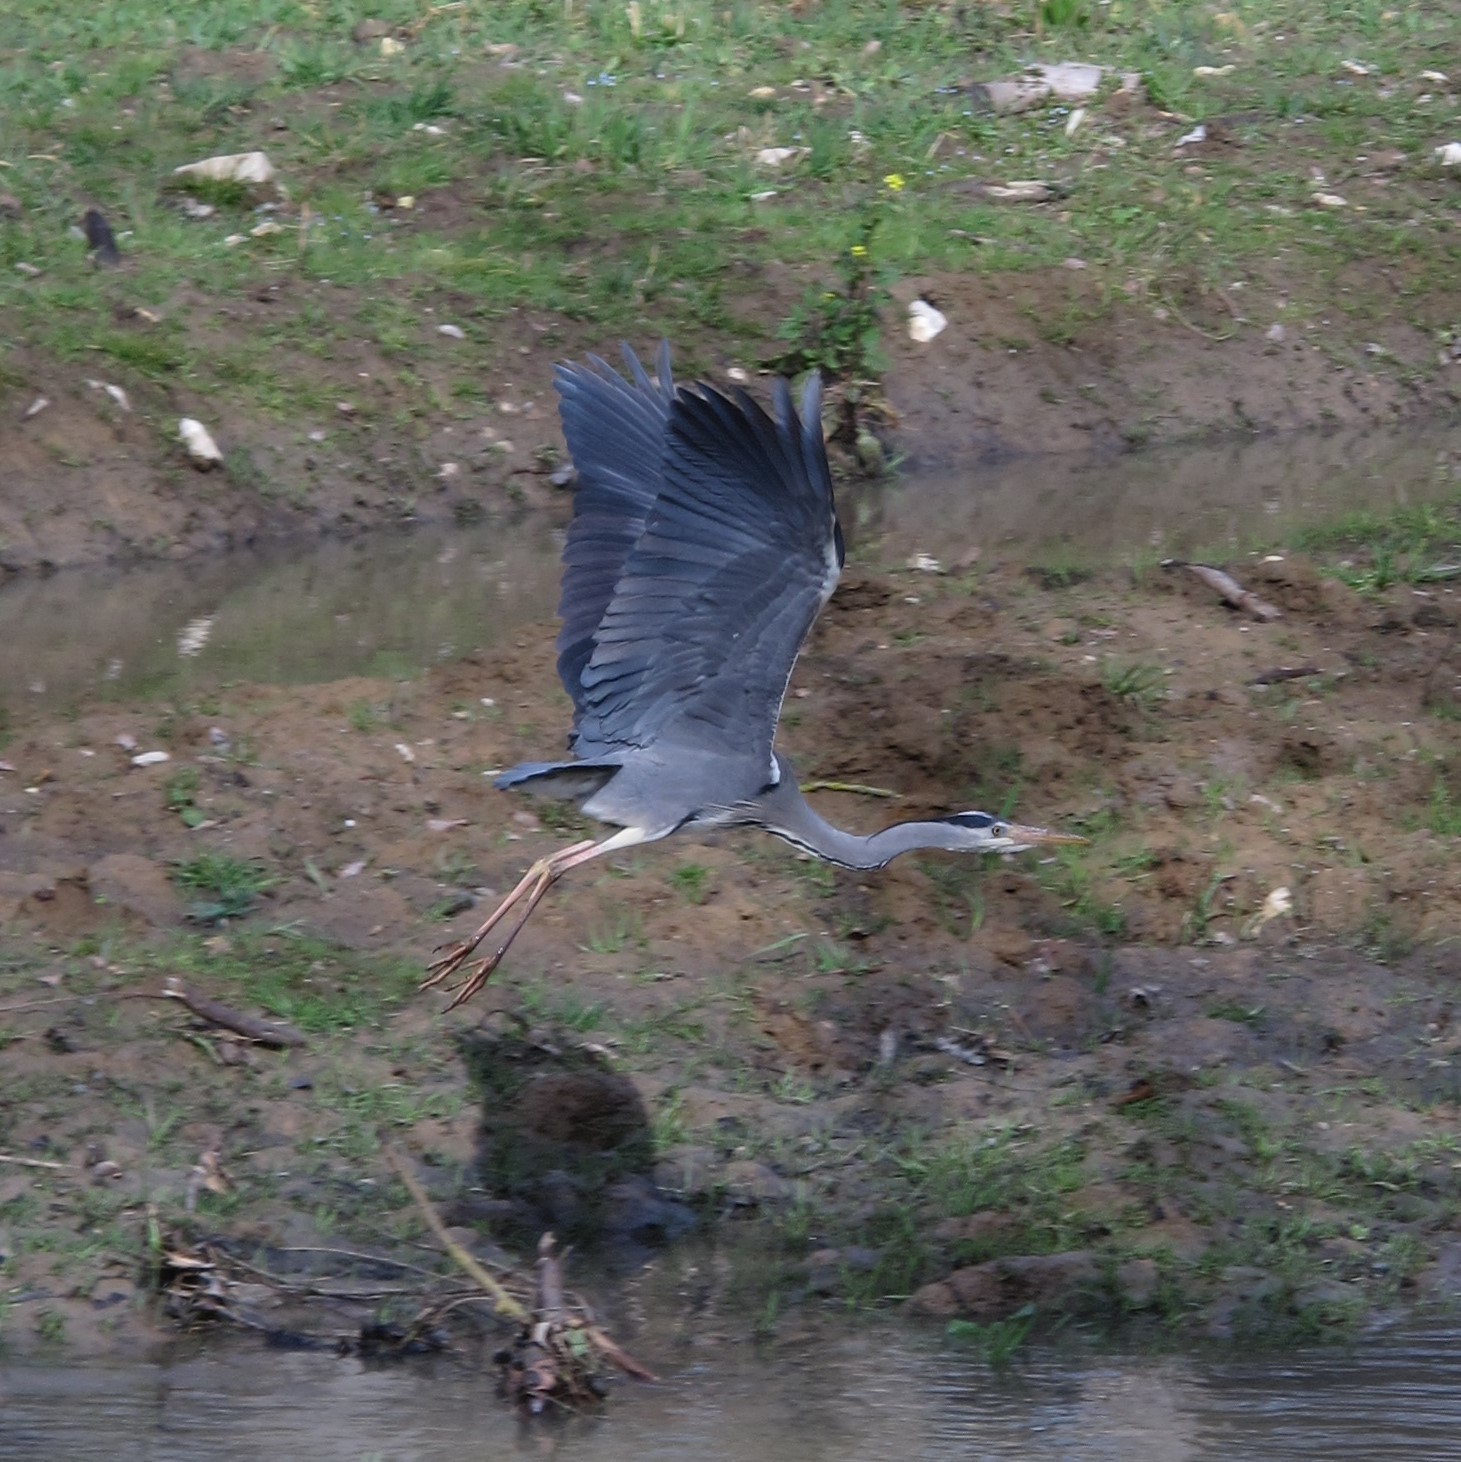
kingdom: Animalia
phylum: Chordata
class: Aves
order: Pelecaniformes
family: Ardeidae
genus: Ardea
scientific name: Ardea cinerea
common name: Grey heron
